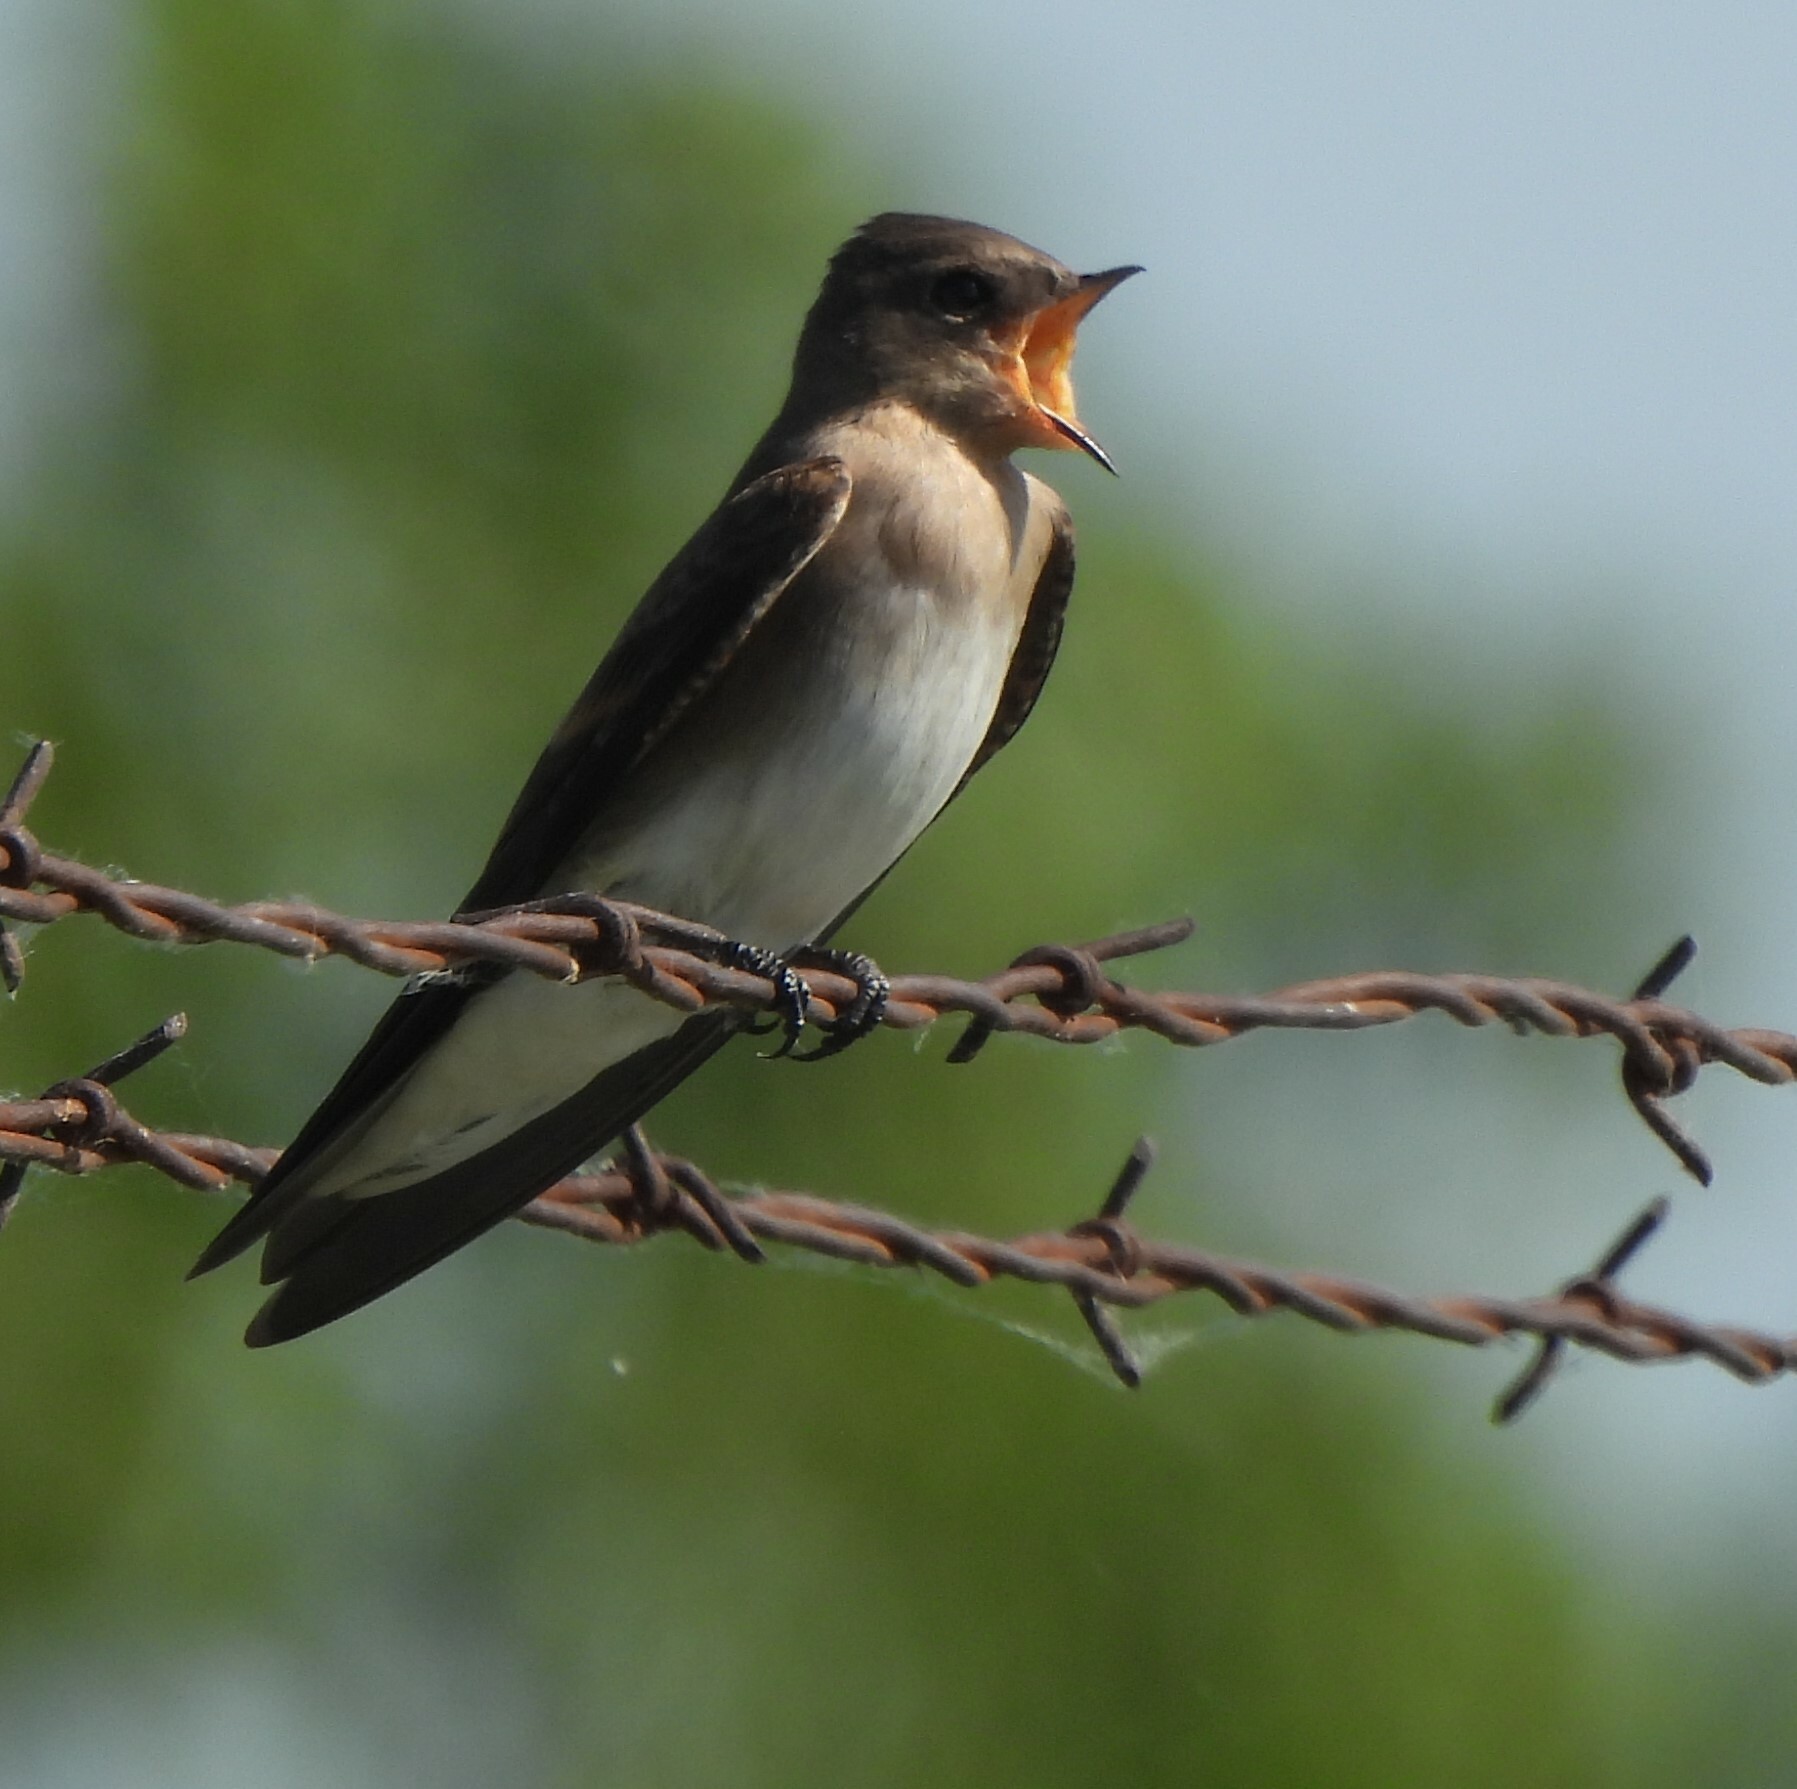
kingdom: Animalia
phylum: Chordata
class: Aves
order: Passeriformes
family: Hirundinidae
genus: Stelgidopteryx
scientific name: Stelgidopteryx serripennis
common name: Northern rough-winged swallow
